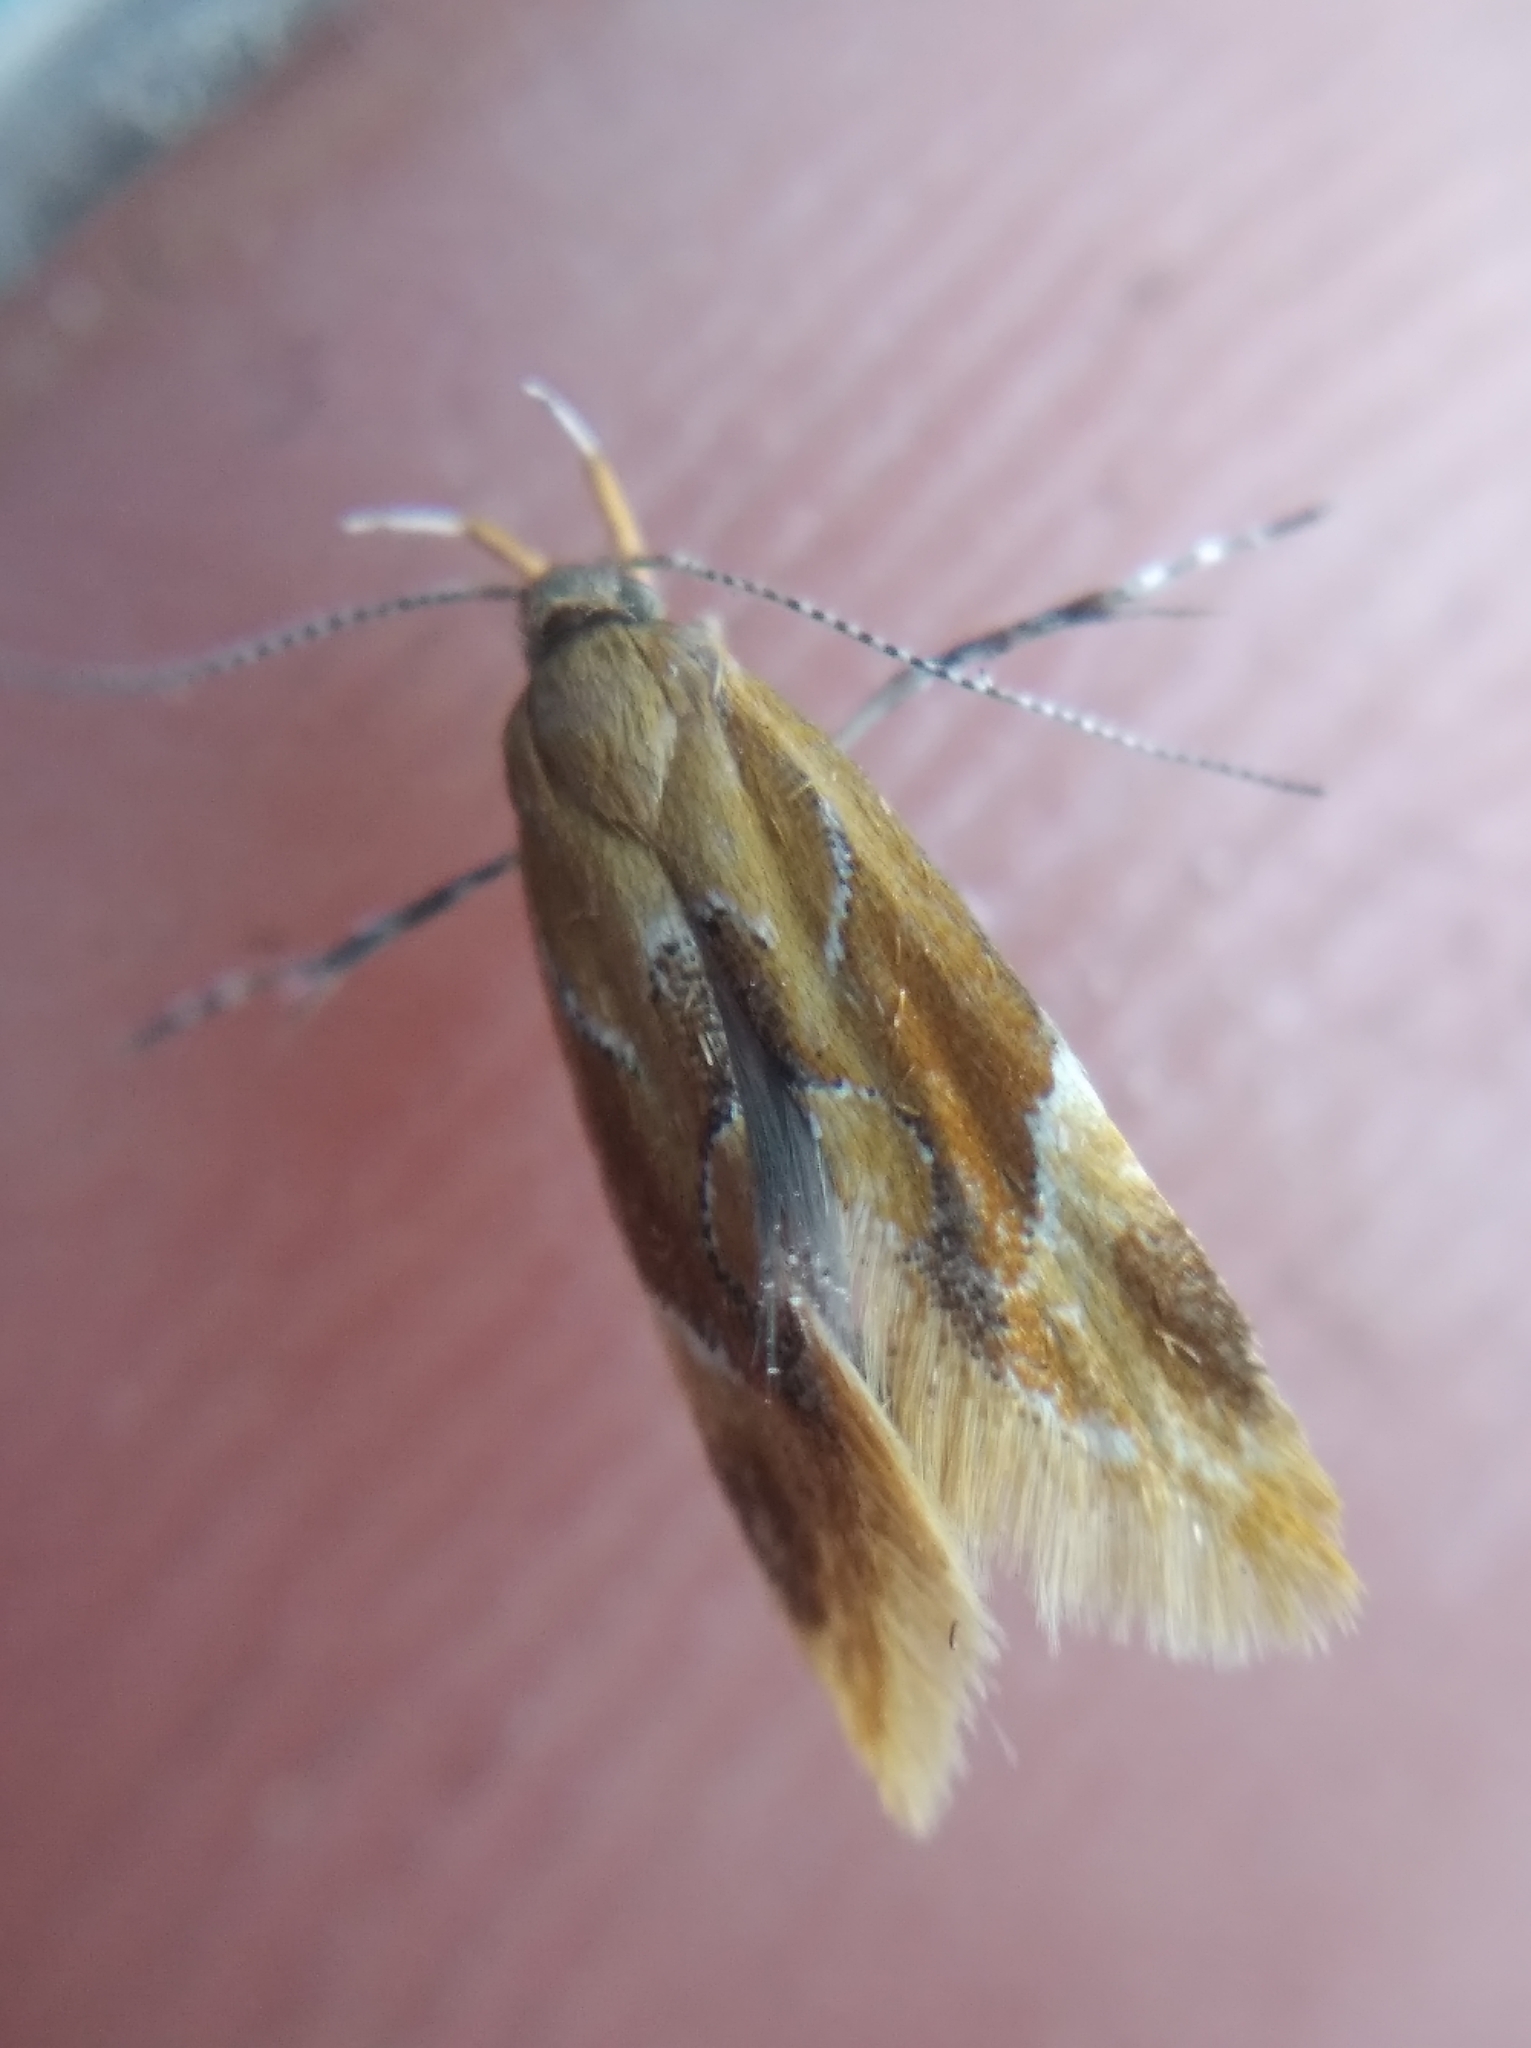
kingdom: Animalia
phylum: Arthropoda
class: Insecta
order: Lepidoptera
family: Oecophoridae
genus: Callima
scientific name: Callima formosella
